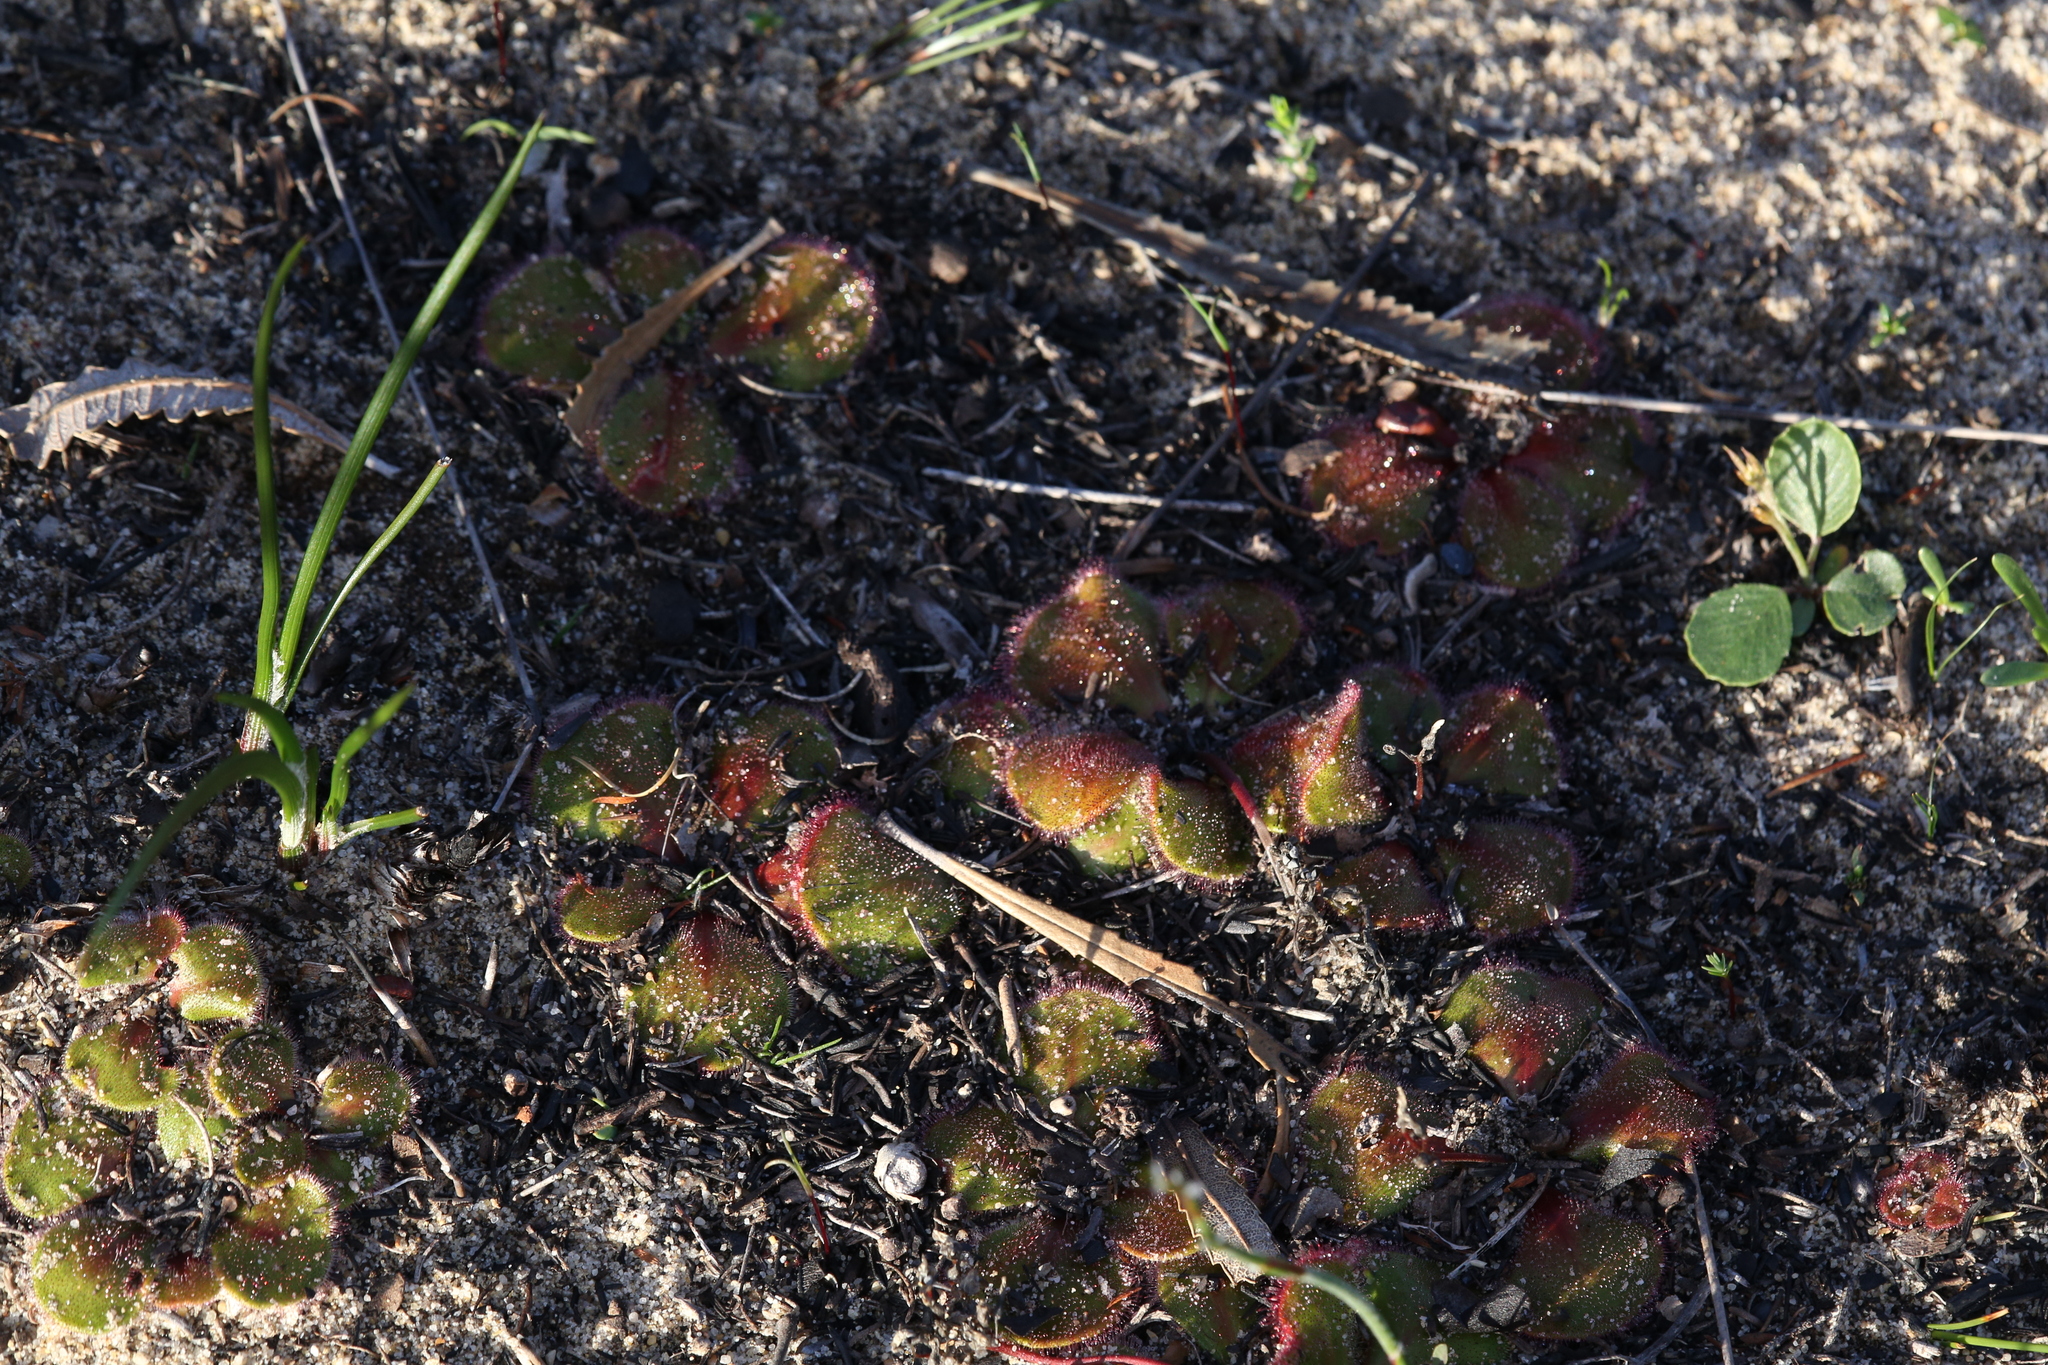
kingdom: Plantae
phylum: Tracheophyta
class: Magnoliopsida
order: Caryophyllales
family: Droseraceae
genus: Drosera
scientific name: Drosera erythrorhiza
